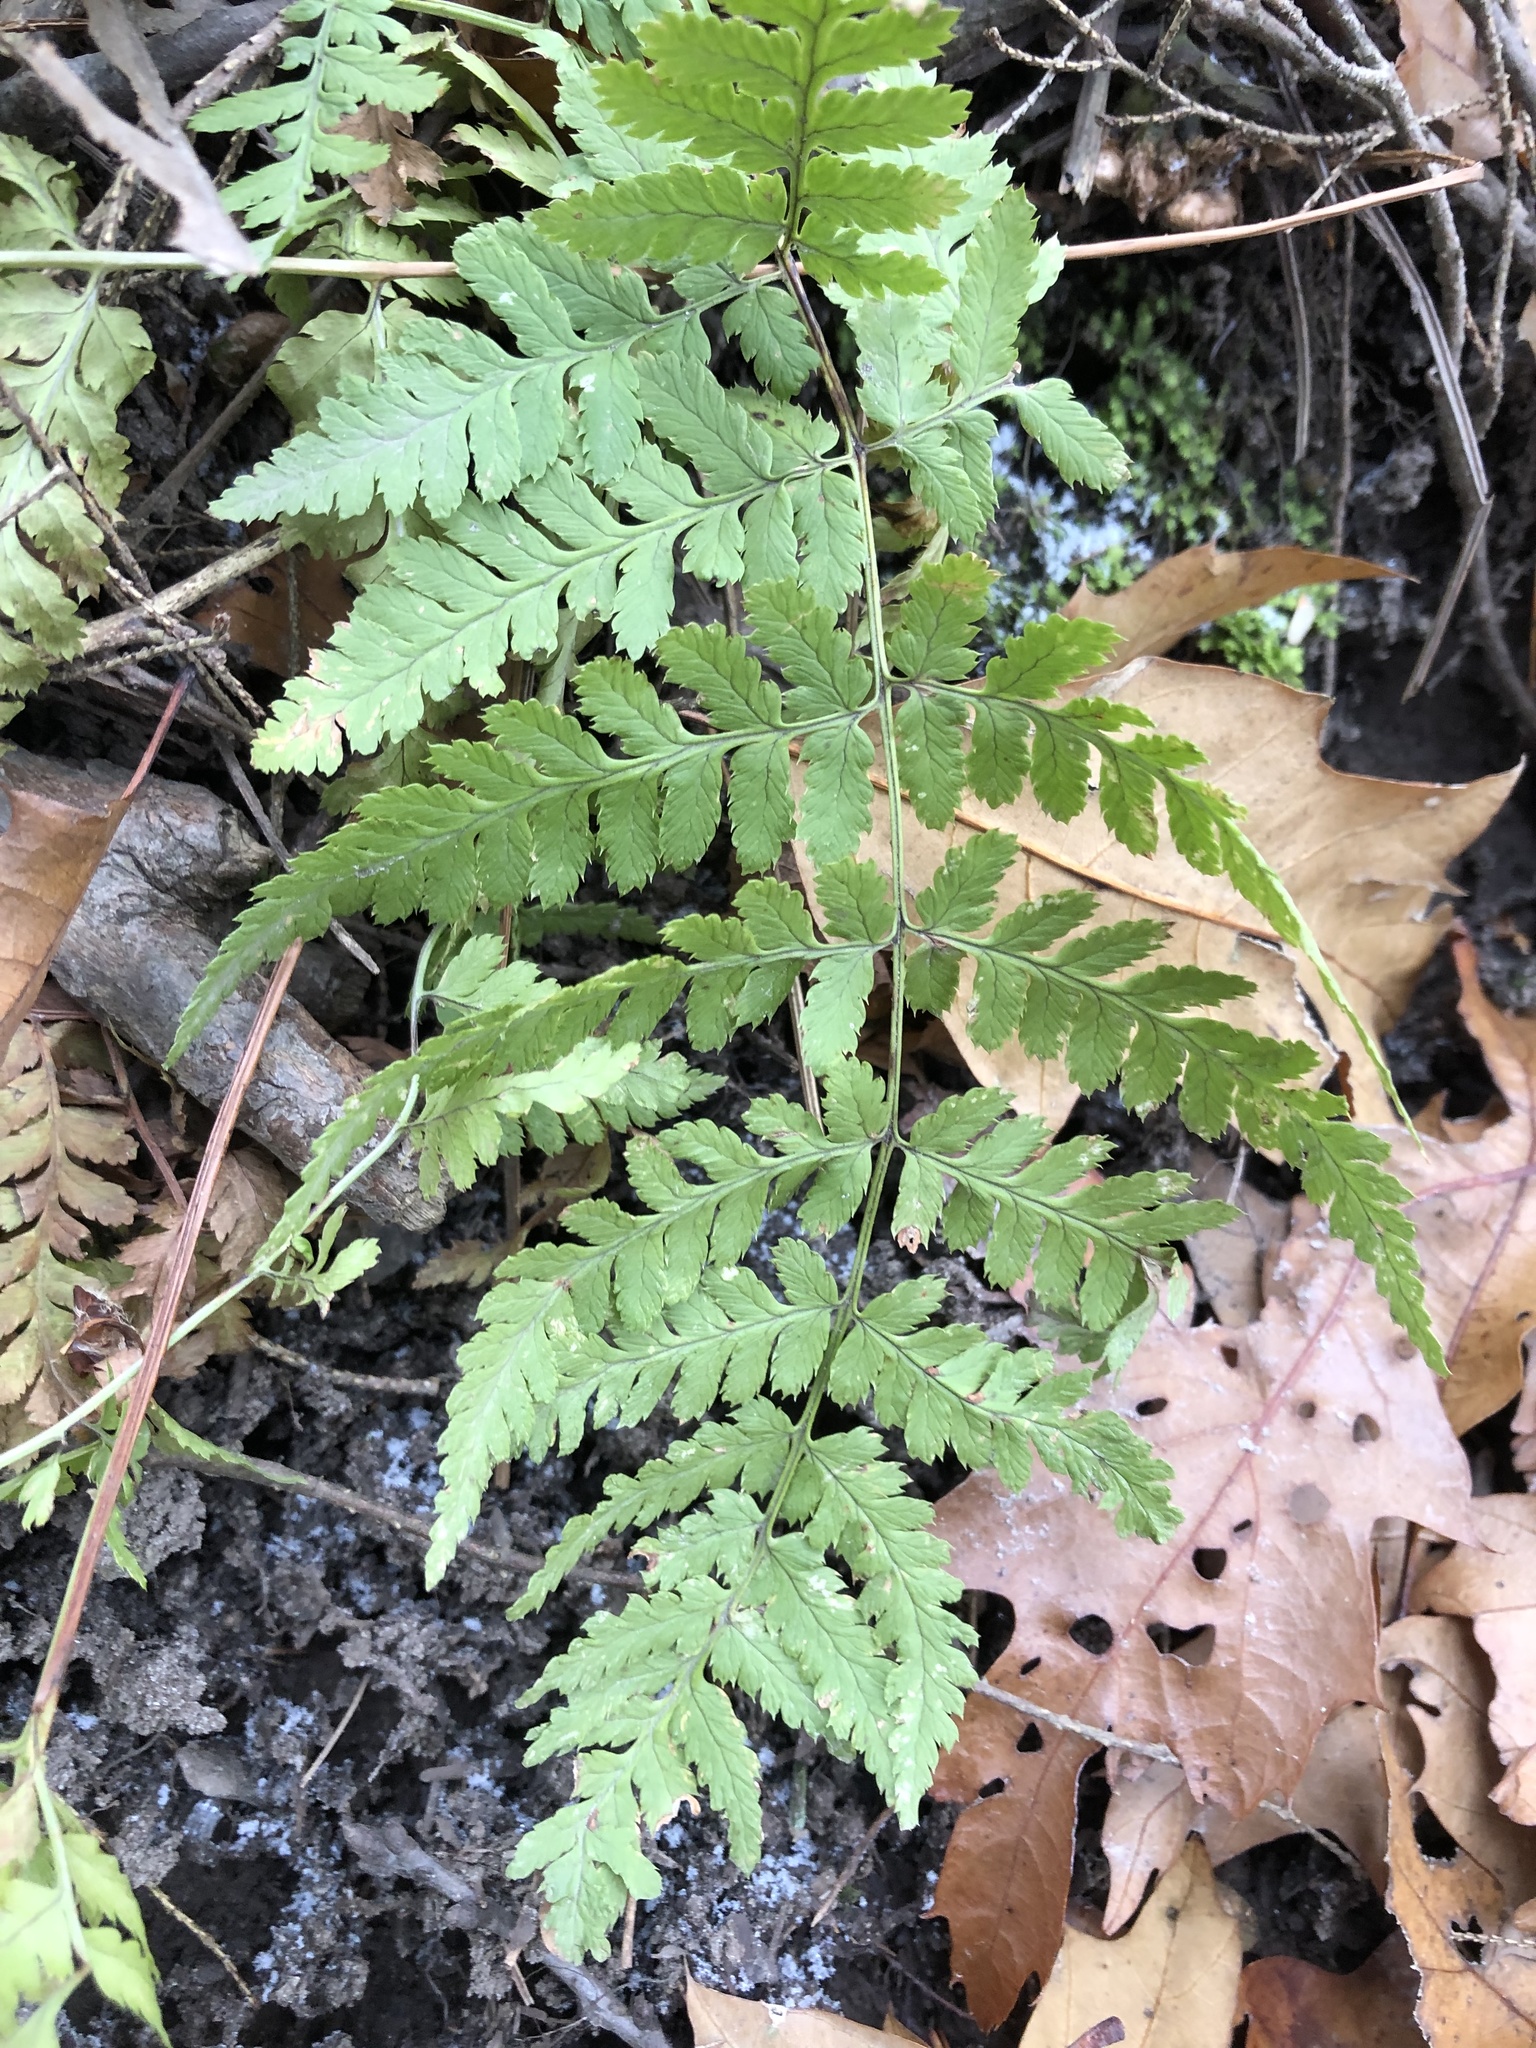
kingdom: Plantae
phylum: Tracheophyta
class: Polypodiopsida
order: Polypodiales
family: Dryopteridaceae
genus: Dryopteris
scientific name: Dryopteris intermedia
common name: Evergreen wood fern
